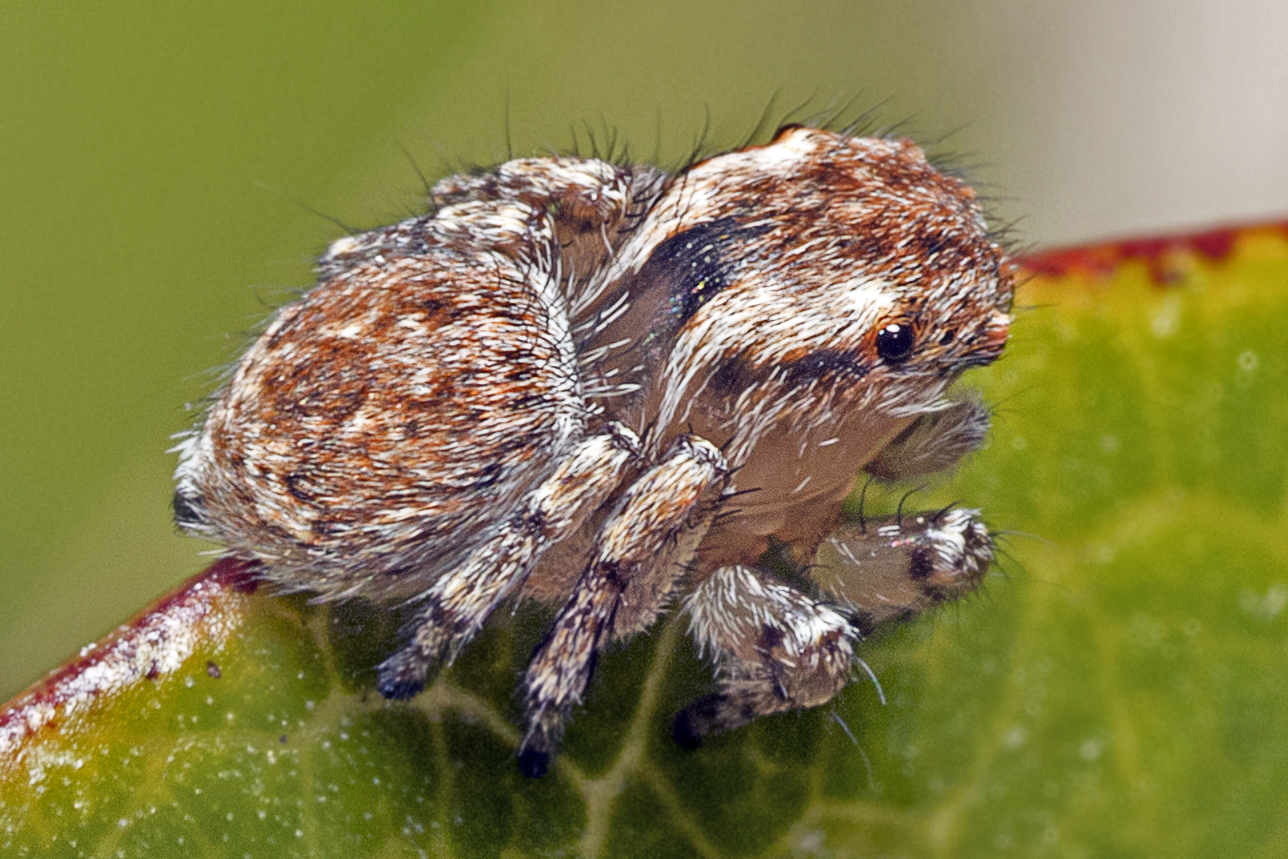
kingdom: Animalia
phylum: Arthropoda
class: Arachnida
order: Araneae
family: Salticidae
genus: Maratus
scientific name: Maratus anomalus
